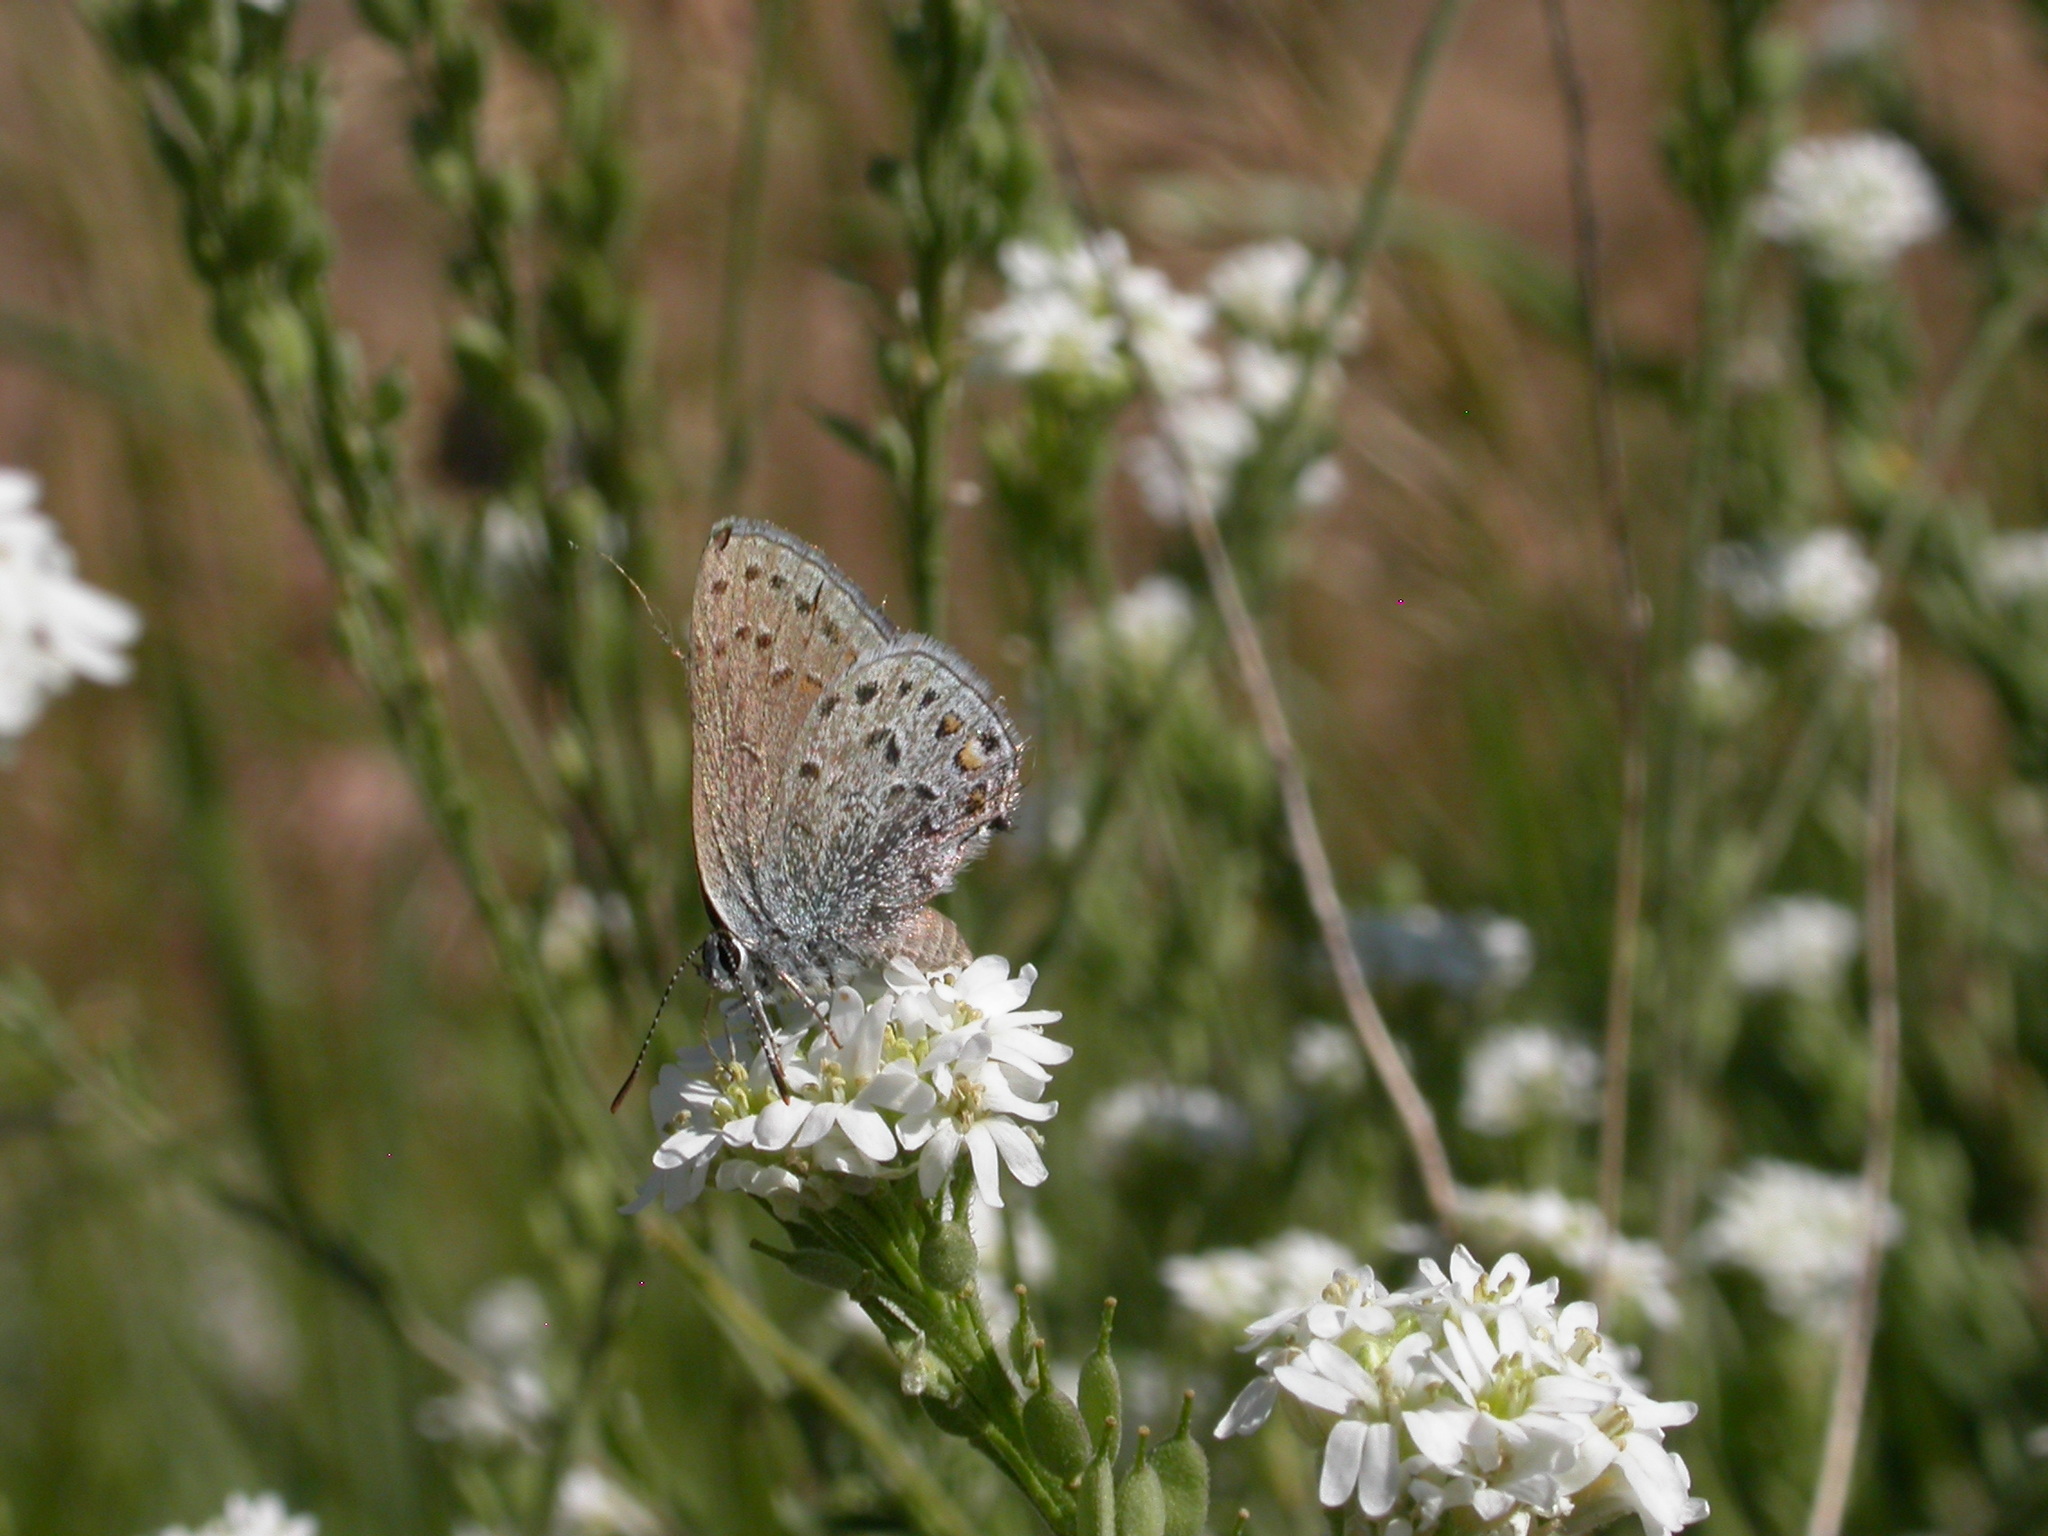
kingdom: Animalia
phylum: Arthropoda
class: Insecta
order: Lepidoptera
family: Lycaenidae
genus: Satyrium
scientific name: Satyrium behrii
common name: Behr's hairstreak
